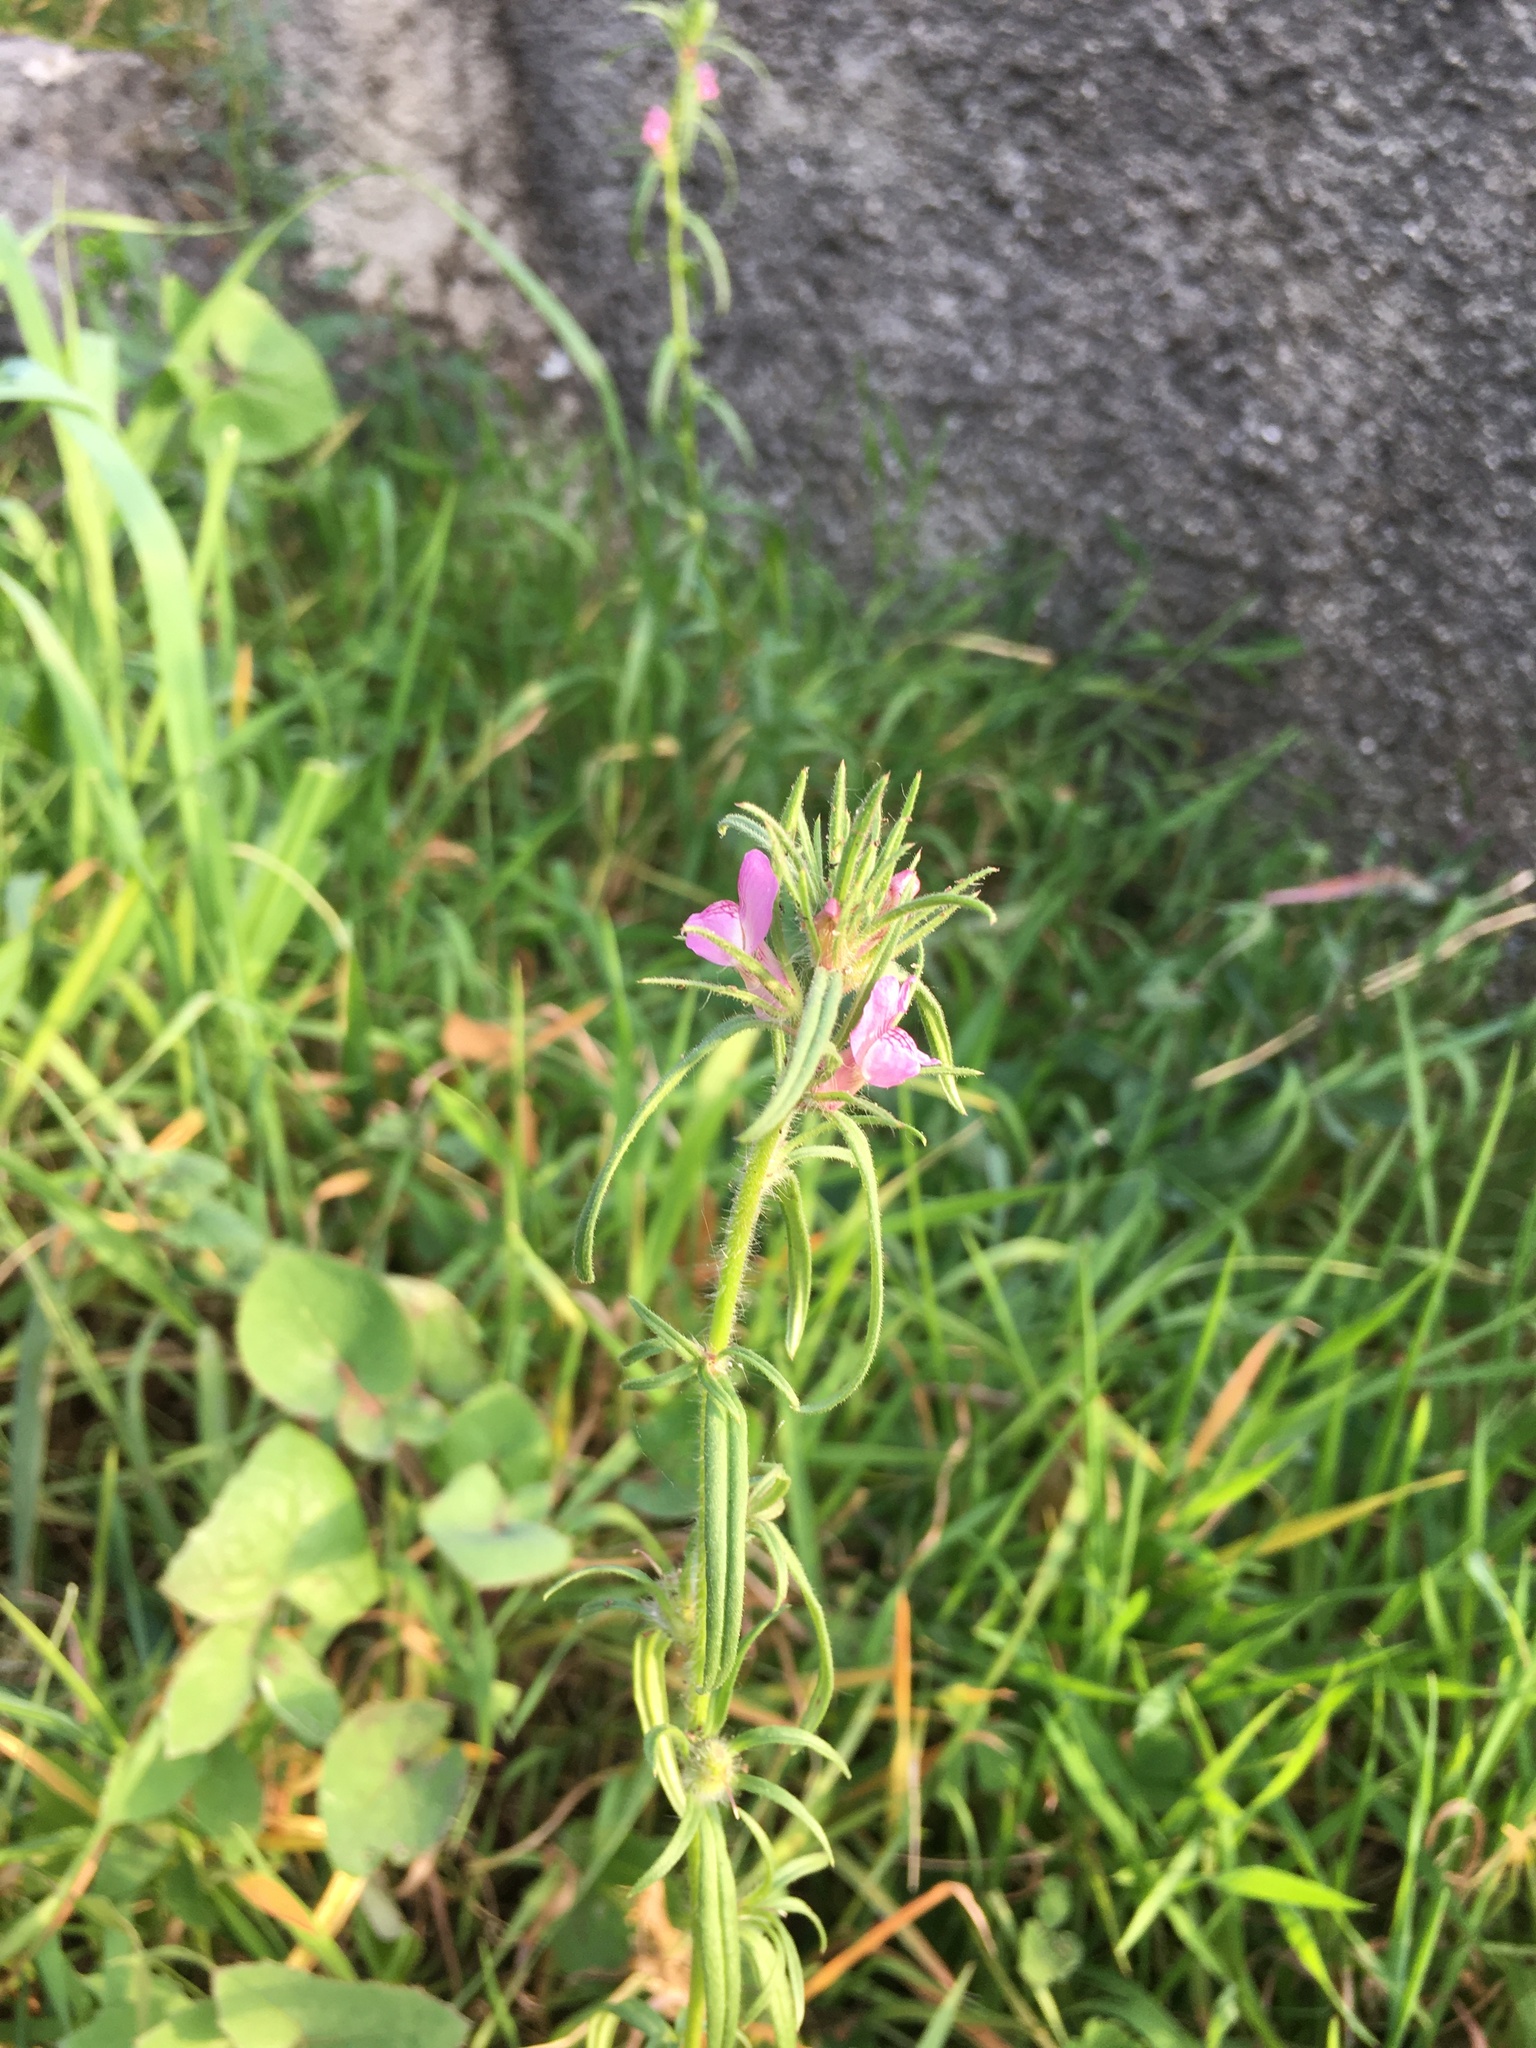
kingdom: Plantae
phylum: Tracheophyta
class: Magnoliopsida
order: Lamiales
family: Plantaginaceae
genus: Misopates
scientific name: Misopates orontium
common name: Weasel's-snout
